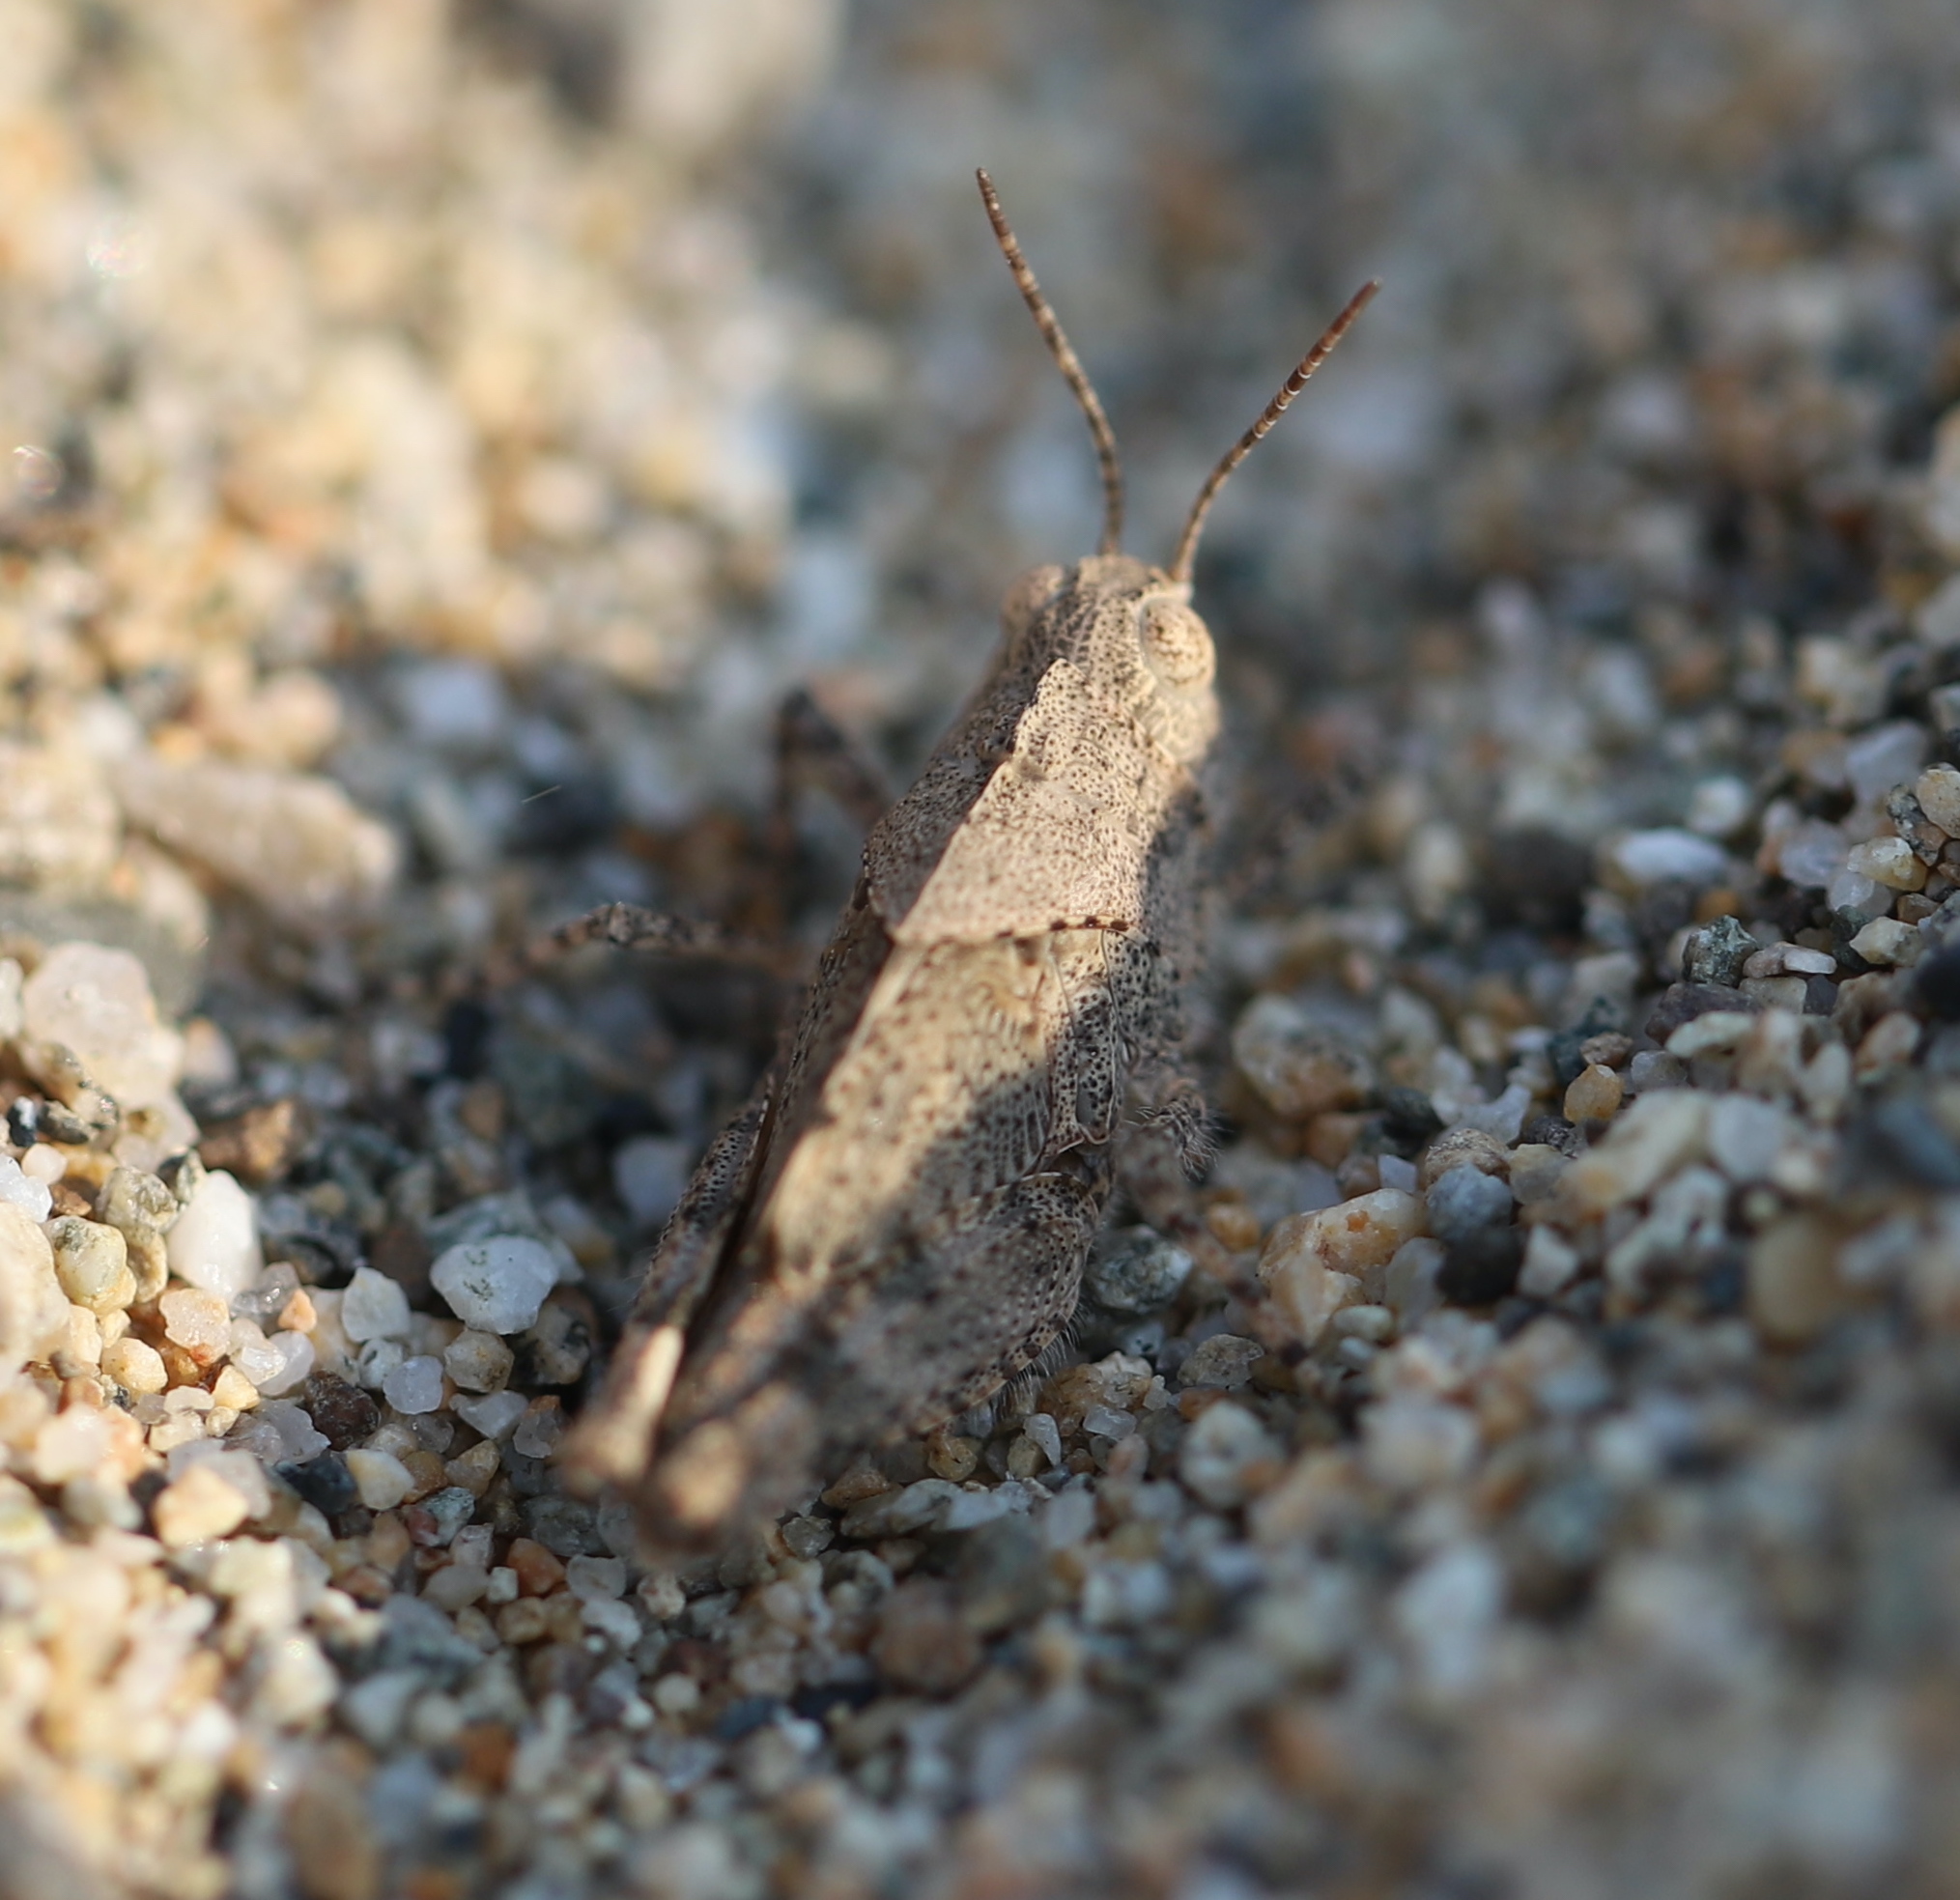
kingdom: Animalia
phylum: Arthropoda
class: Insecta
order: Orthoptera
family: Acrididae
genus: Dissosteira
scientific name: Dissosteira carolina
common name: Carolina grasshopper
